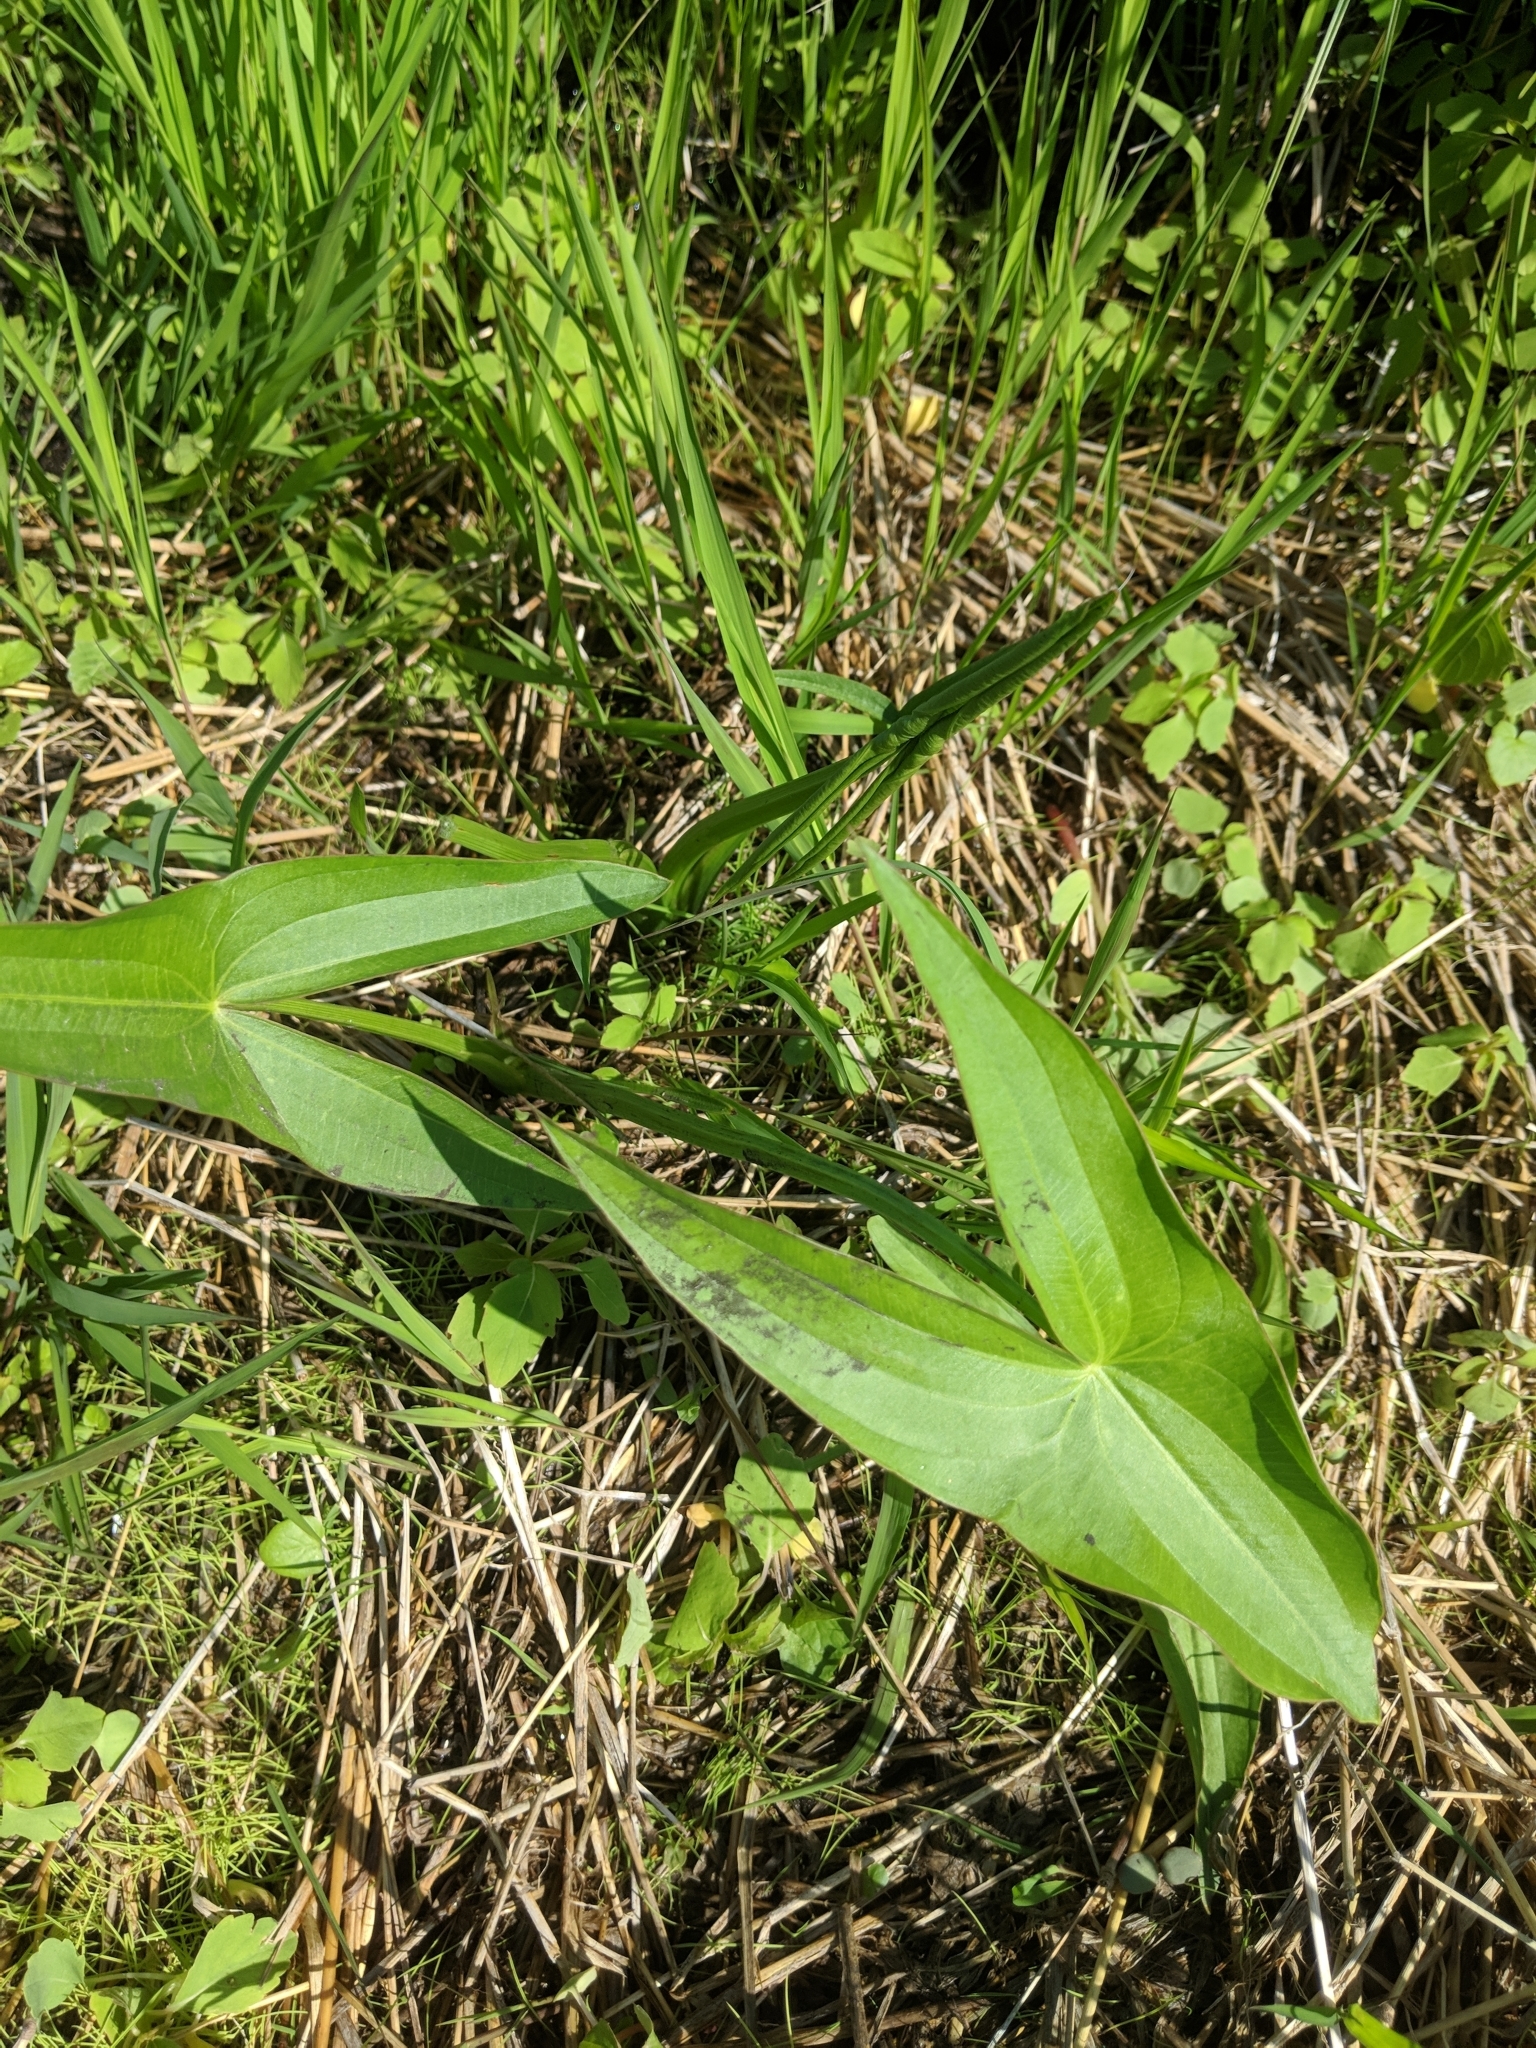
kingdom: Plantae
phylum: Tracheophyta
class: Liliopsida
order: Alismatales
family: Alismataceae
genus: Sagittaria
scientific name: Sagittaria
